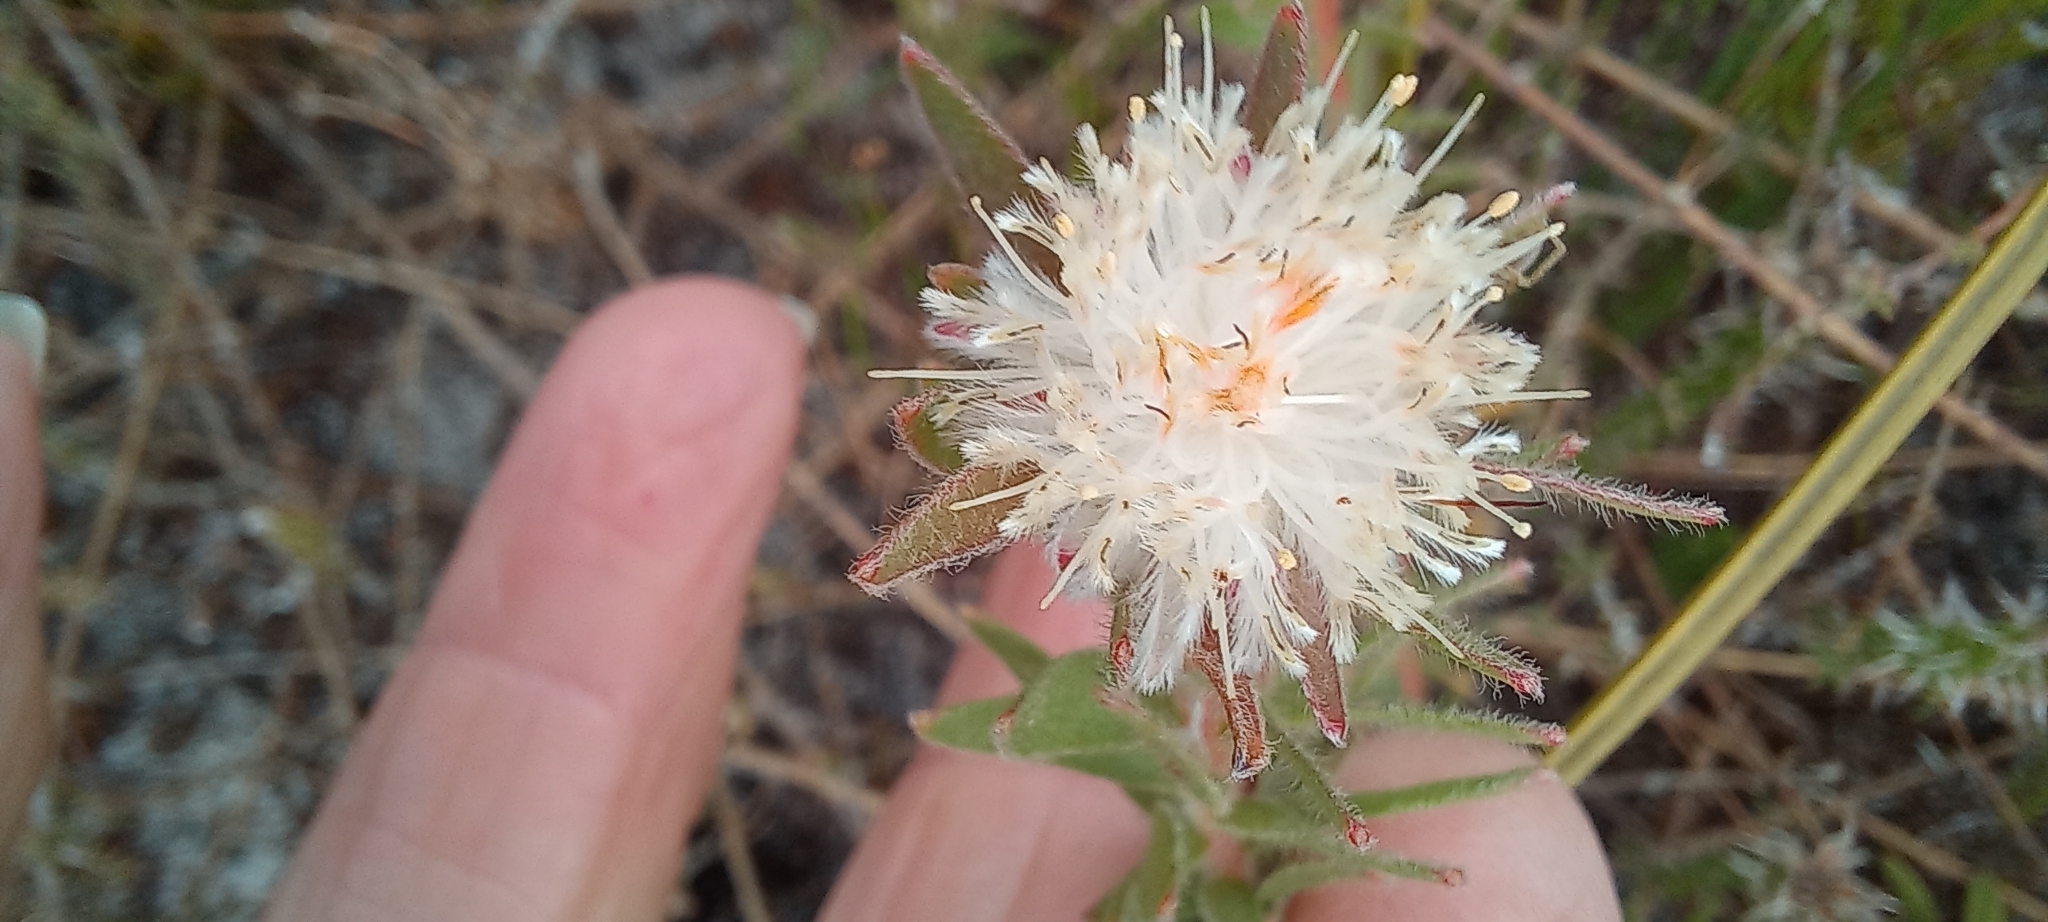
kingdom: Plantae
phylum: Tracheophyta
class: Magnoliopsida
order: Proteales
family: Proteaceae
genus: Diastella
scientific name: Diastella divaricata
